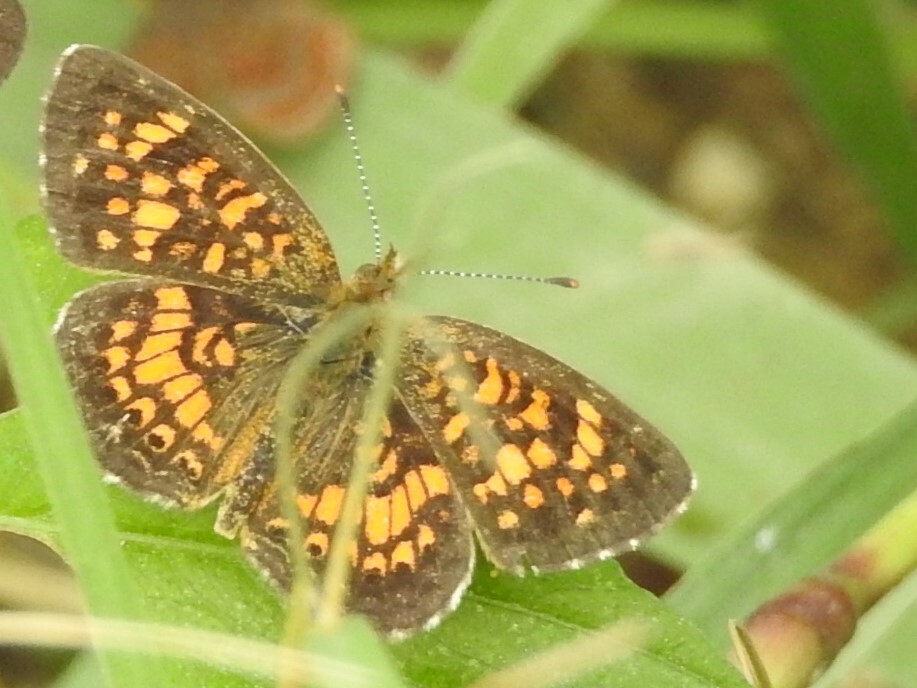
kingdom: Animalia
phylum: Arthropoda
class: Insecta
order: Lepidoptera
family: Nymphalidae
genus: Phyciodes
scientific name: Phyciodes vesta
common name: Vesta crescent
